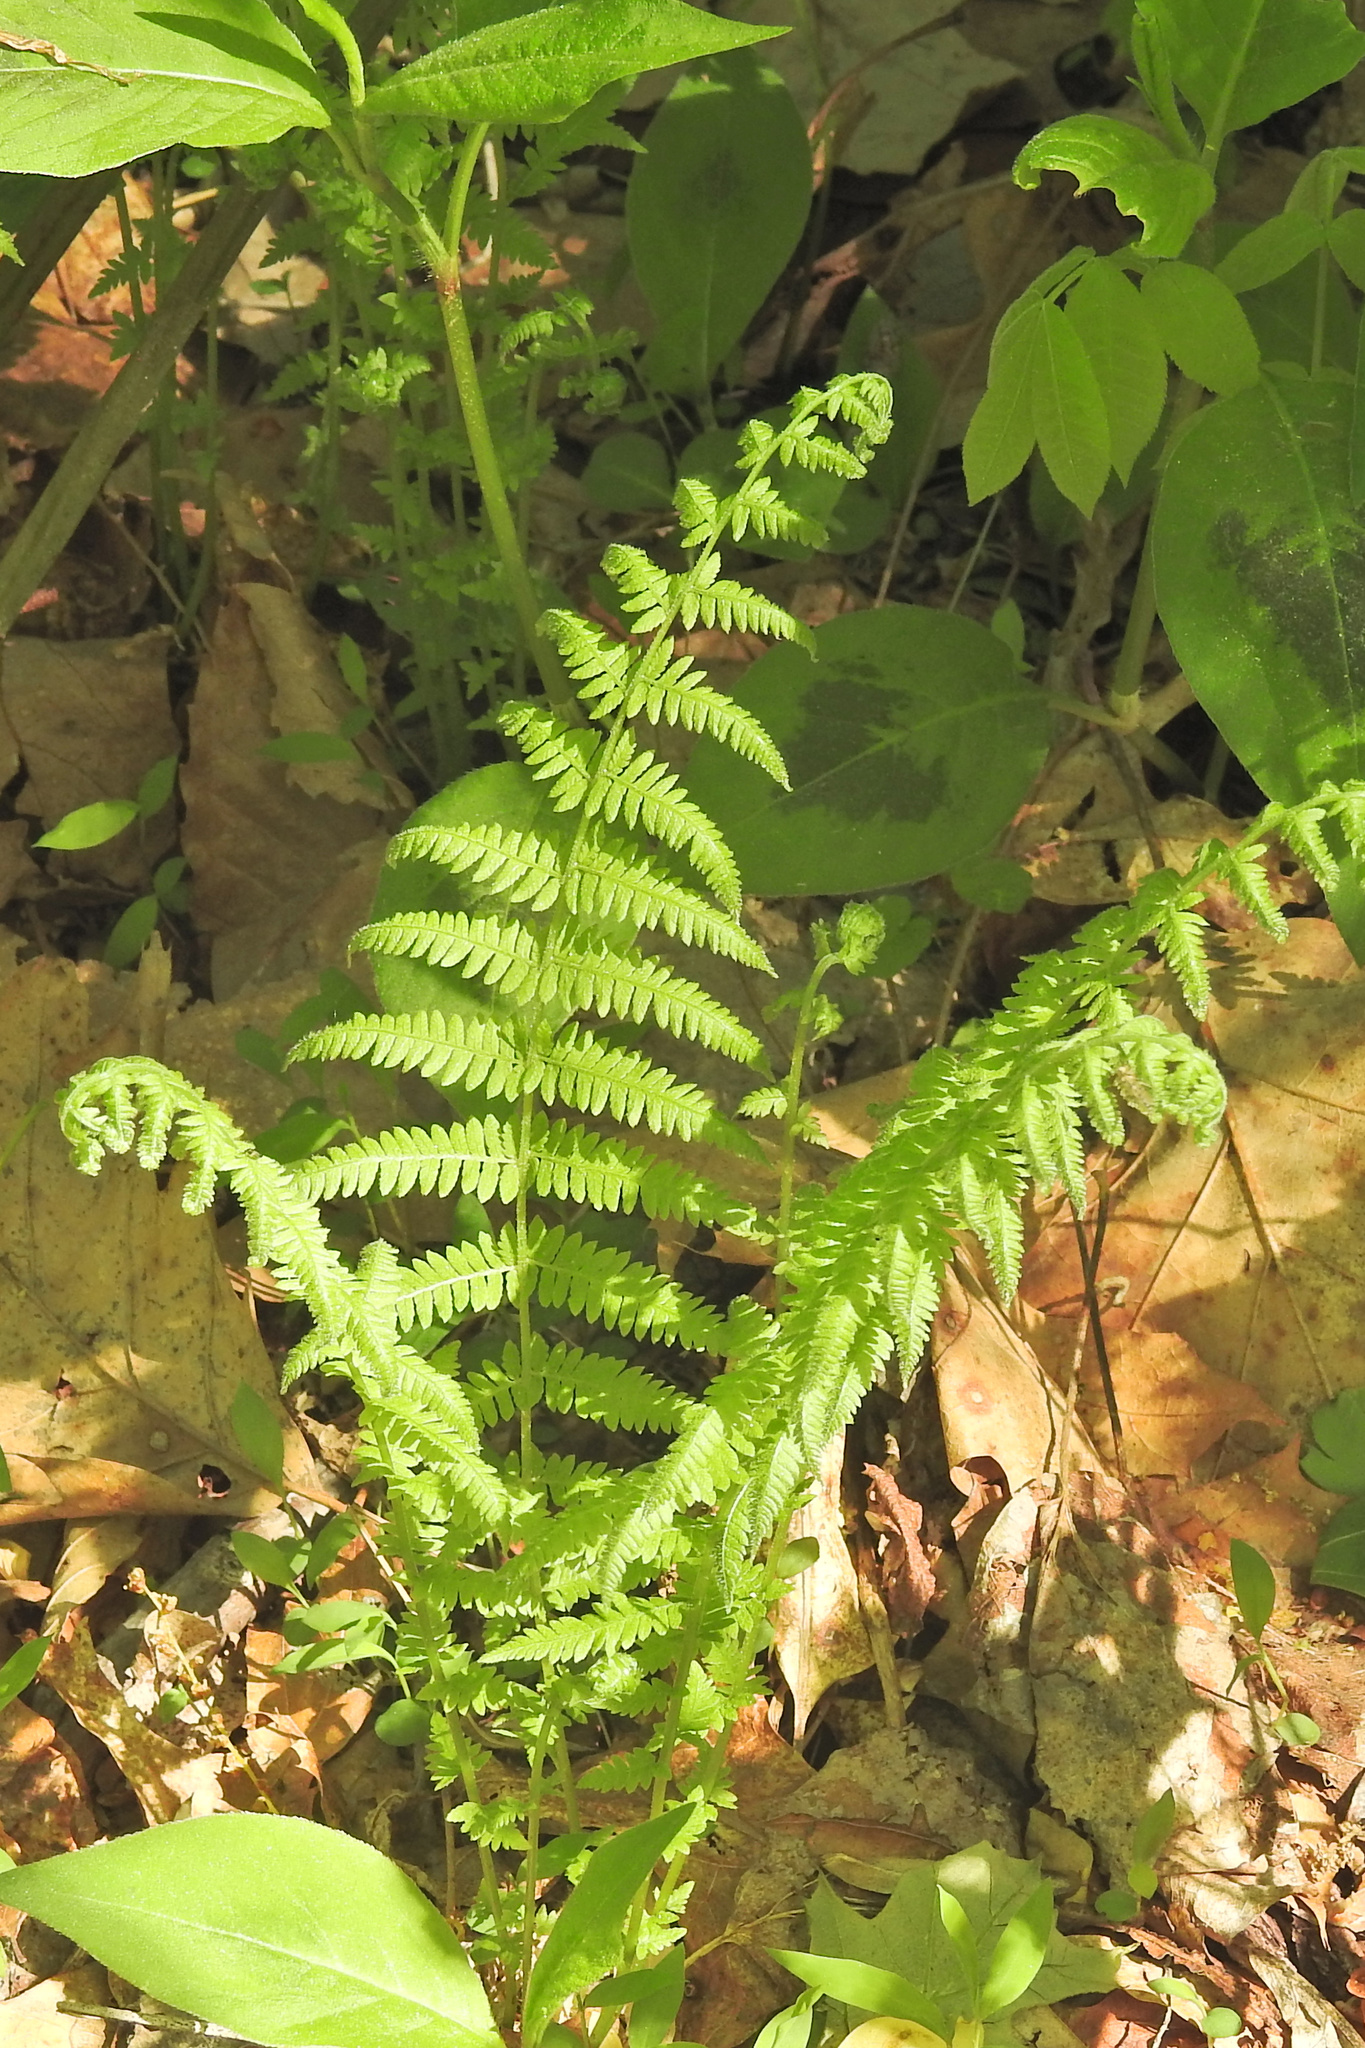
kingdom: Plantae
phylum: Tracheophyta
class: Polypodiopsida
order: Polypodiales
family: Thelypteridaceae
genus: Amauropelta
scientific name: Amauropelta noveboracensis
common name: New york fern
